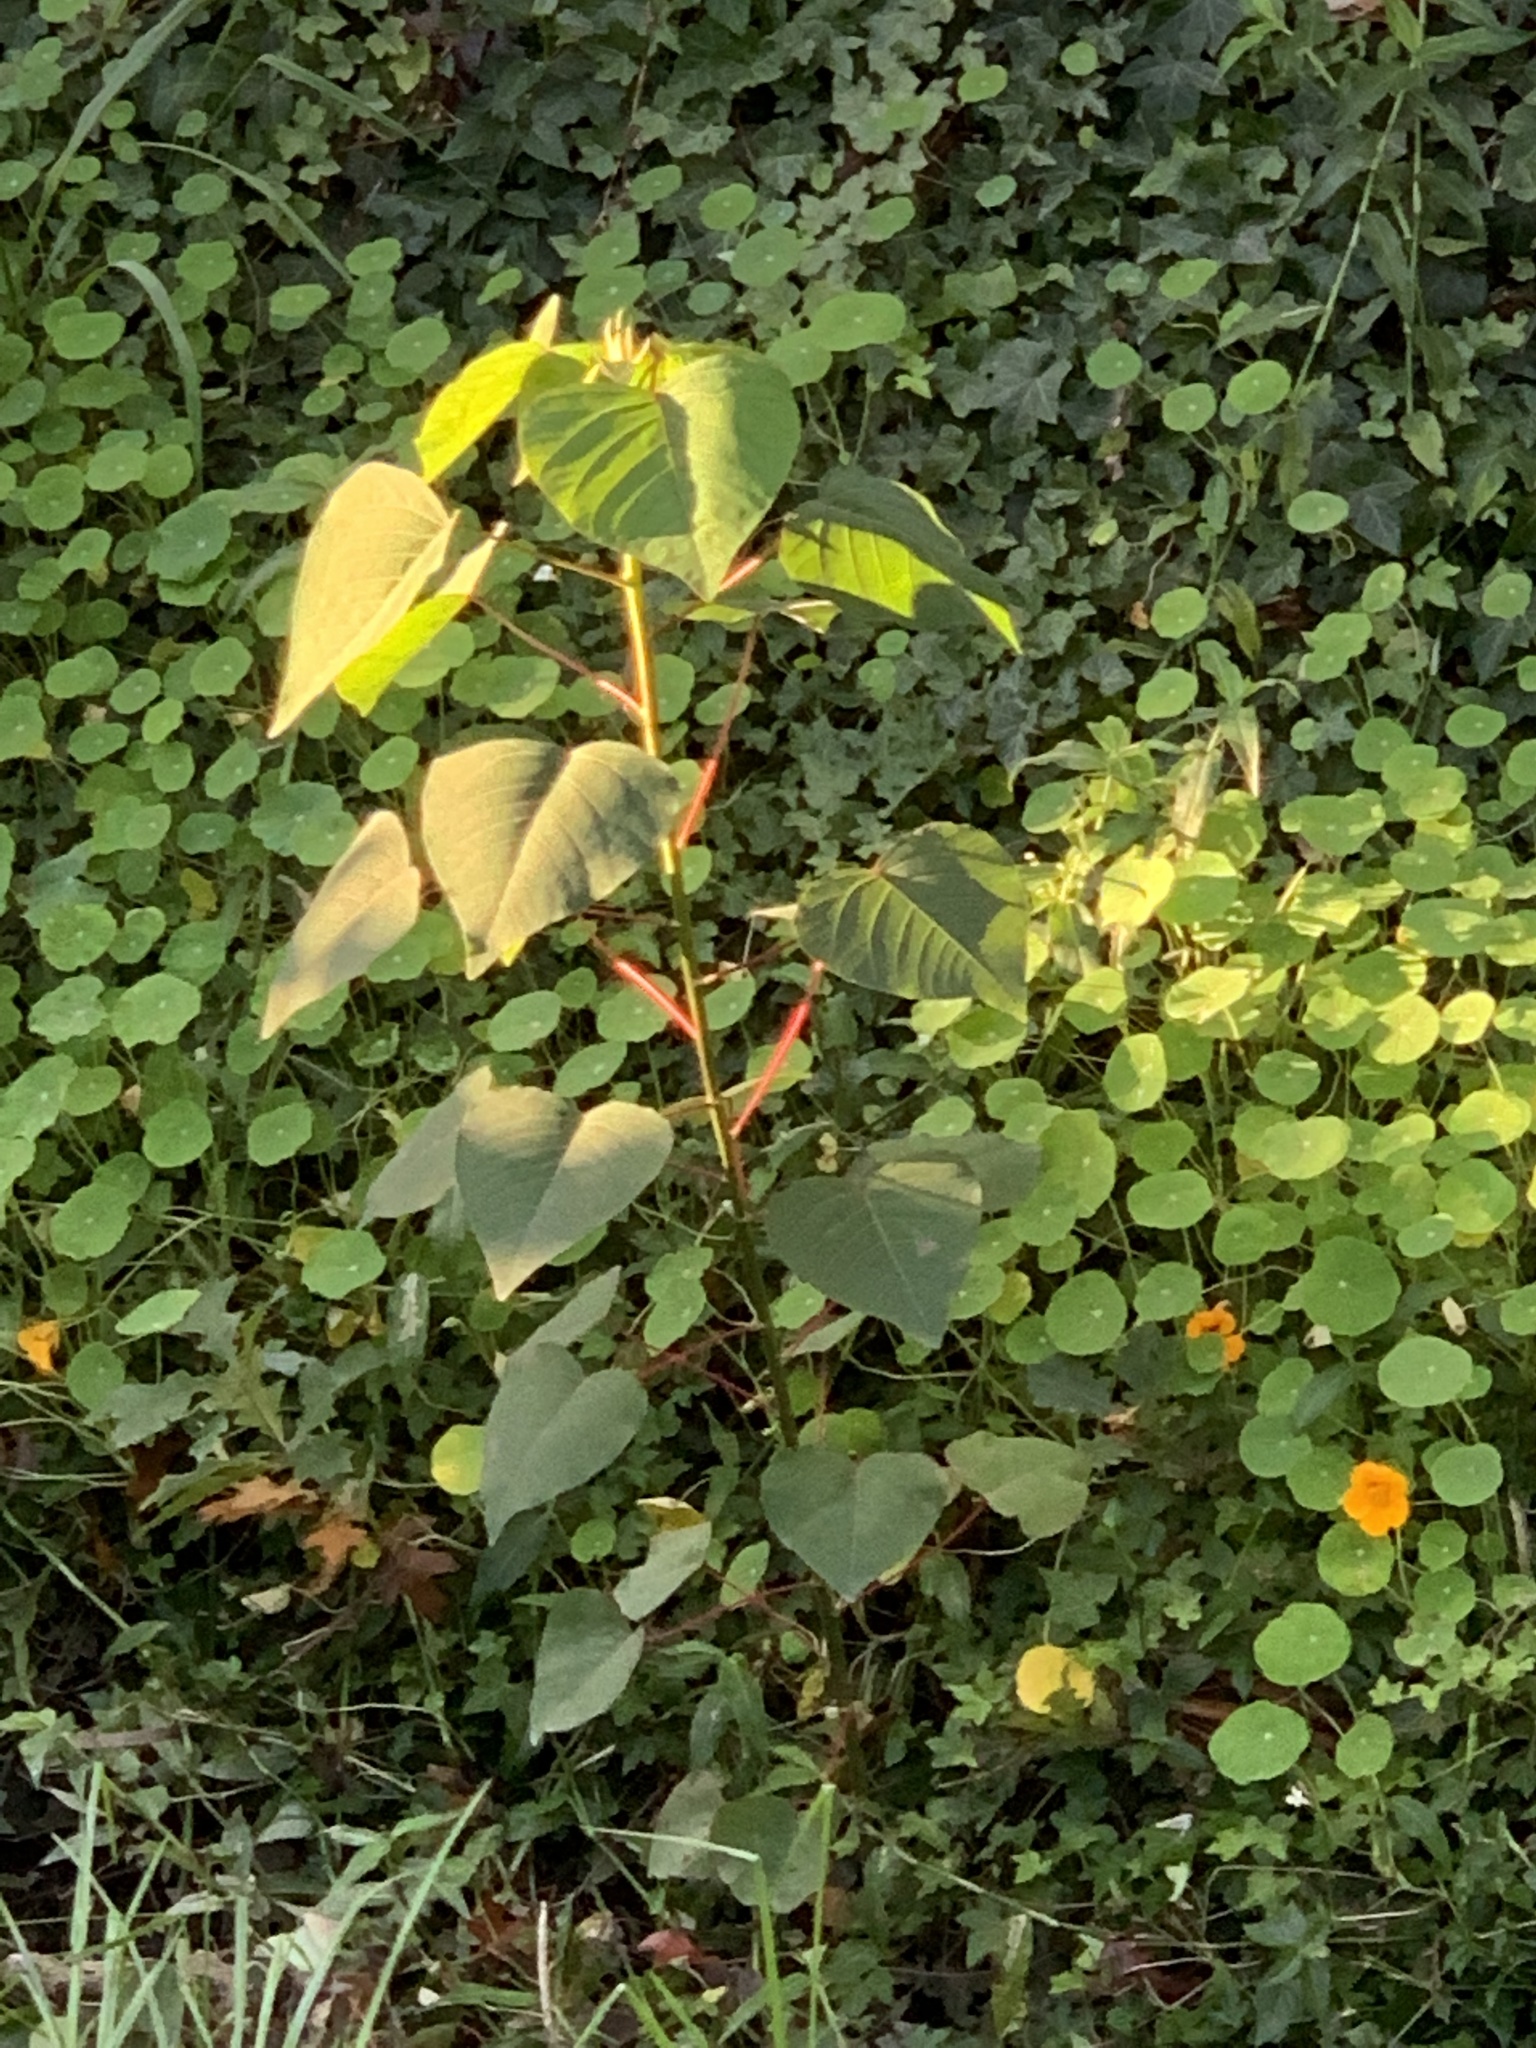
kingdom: Plantae
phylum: Tracheophyta
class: Magnoliopsida
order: Malpighiales
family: Euphorbiaceae
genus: Homalanthus
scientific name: Homalanthus populifolius
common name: Queensland poplar
